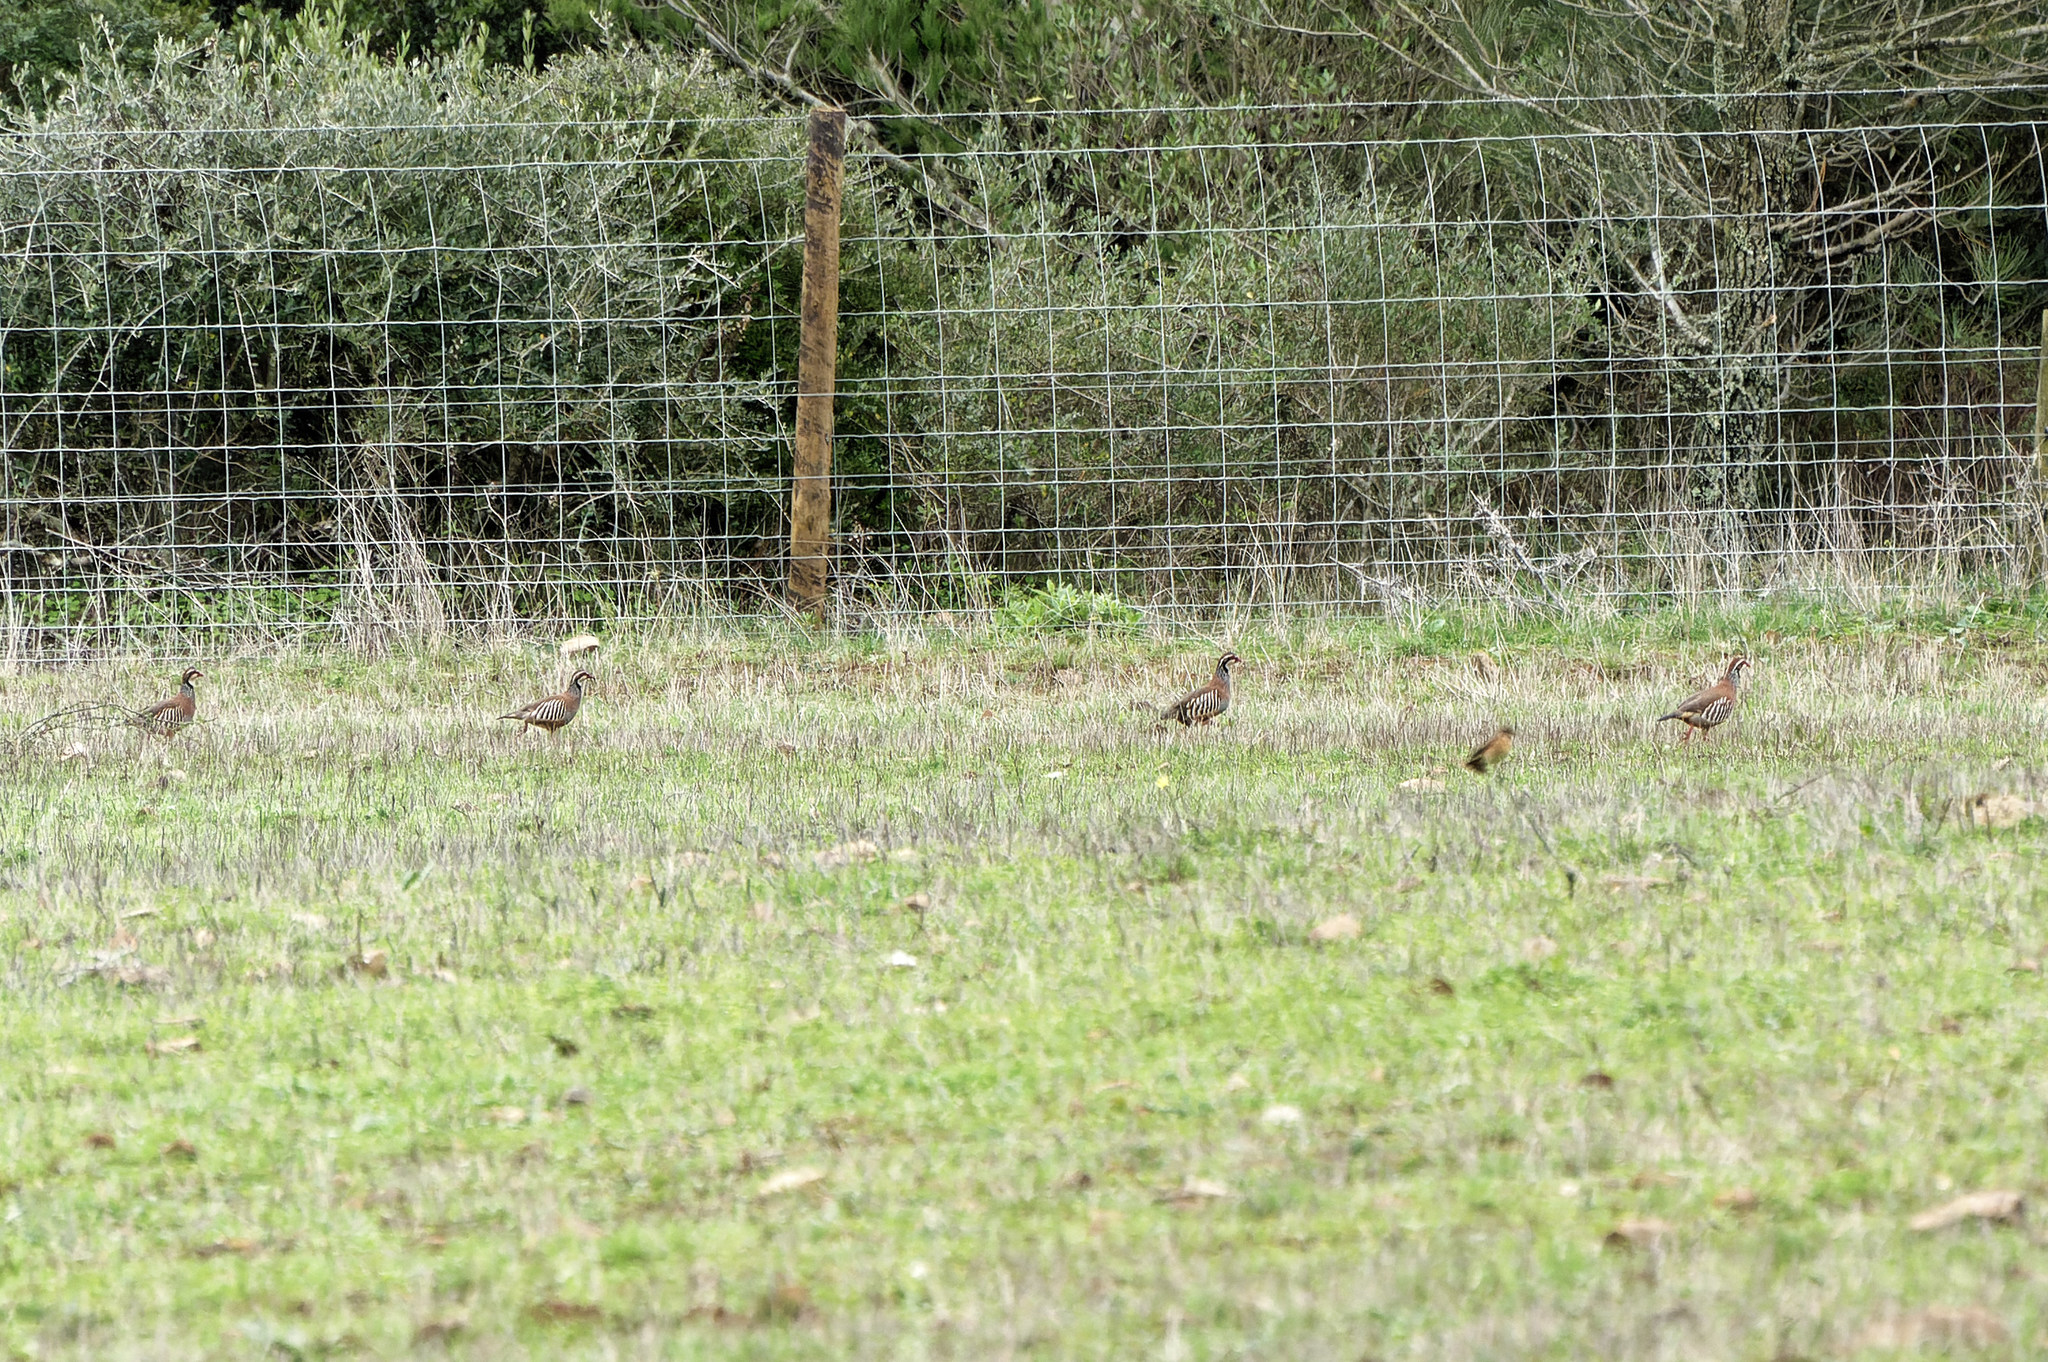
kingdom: Animalia
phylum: Chordata
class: Aves
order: Galliformes
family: Phasianidae
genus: Alectoris
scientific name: Alectoris rufa
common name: Red-legged partridge
